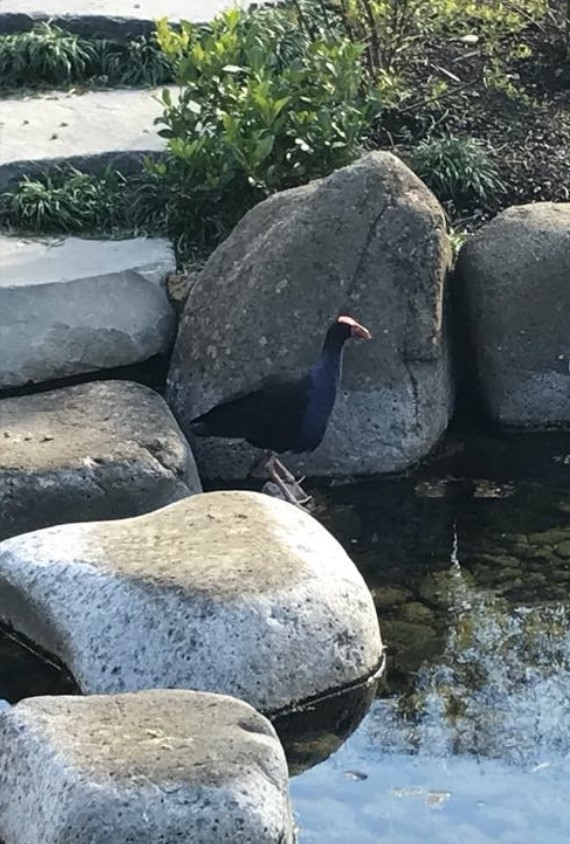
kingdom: Animalia
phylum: Chordata
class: Aves
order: Gruiformes
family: Rallidae
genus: Porphyrio
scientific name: Porphyrio melanotus
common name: Australasian swamphen
